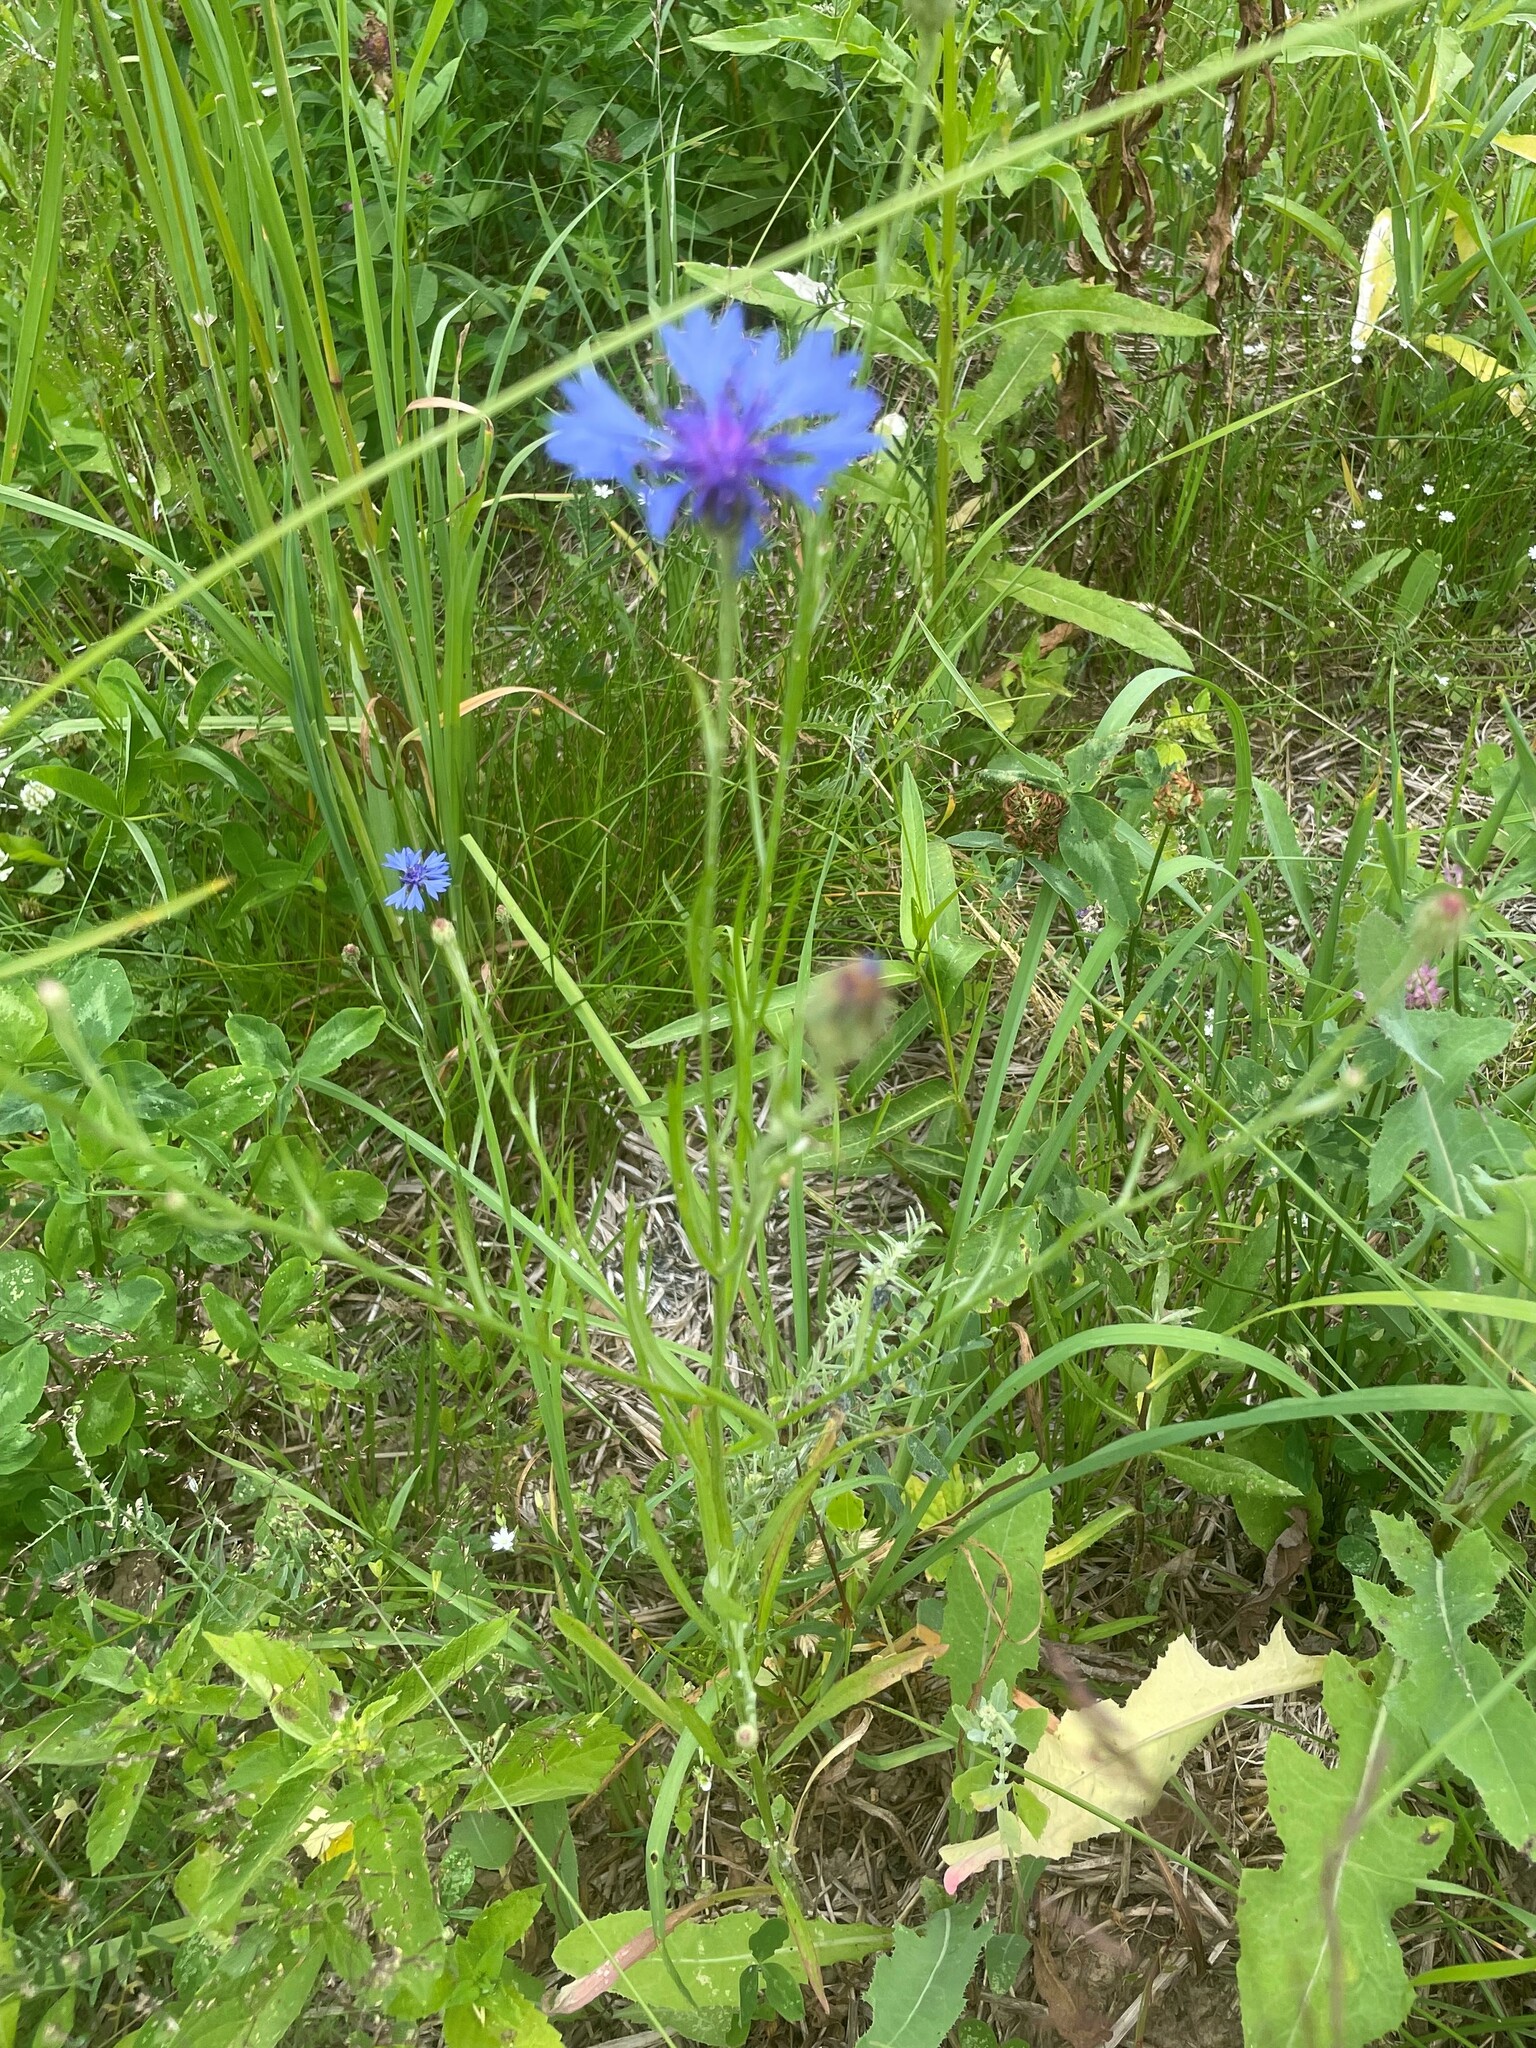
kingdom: Plantae
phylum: Tracheophyta
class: Magnoliopsida
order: Asterales
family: Asteraceae
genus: Centaurea
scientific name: Centaurea cyanus
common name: Cornflower
